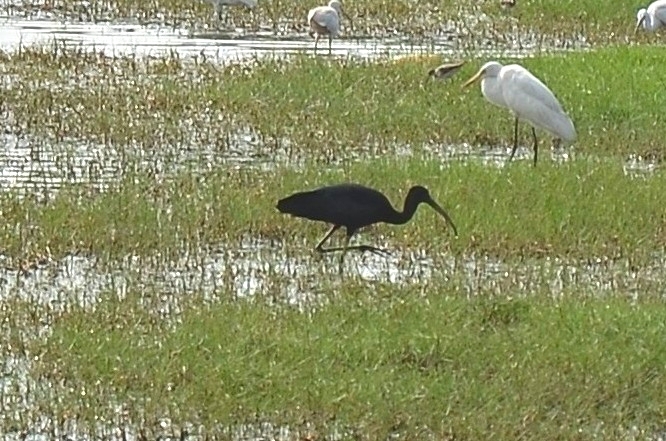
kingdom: Animalia
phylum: Chordata
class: Aves
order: Pelecaniformes
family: Threskiornithidae
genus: Plegadis
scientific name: Plegadis falcinellus
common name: Glossy ibis
